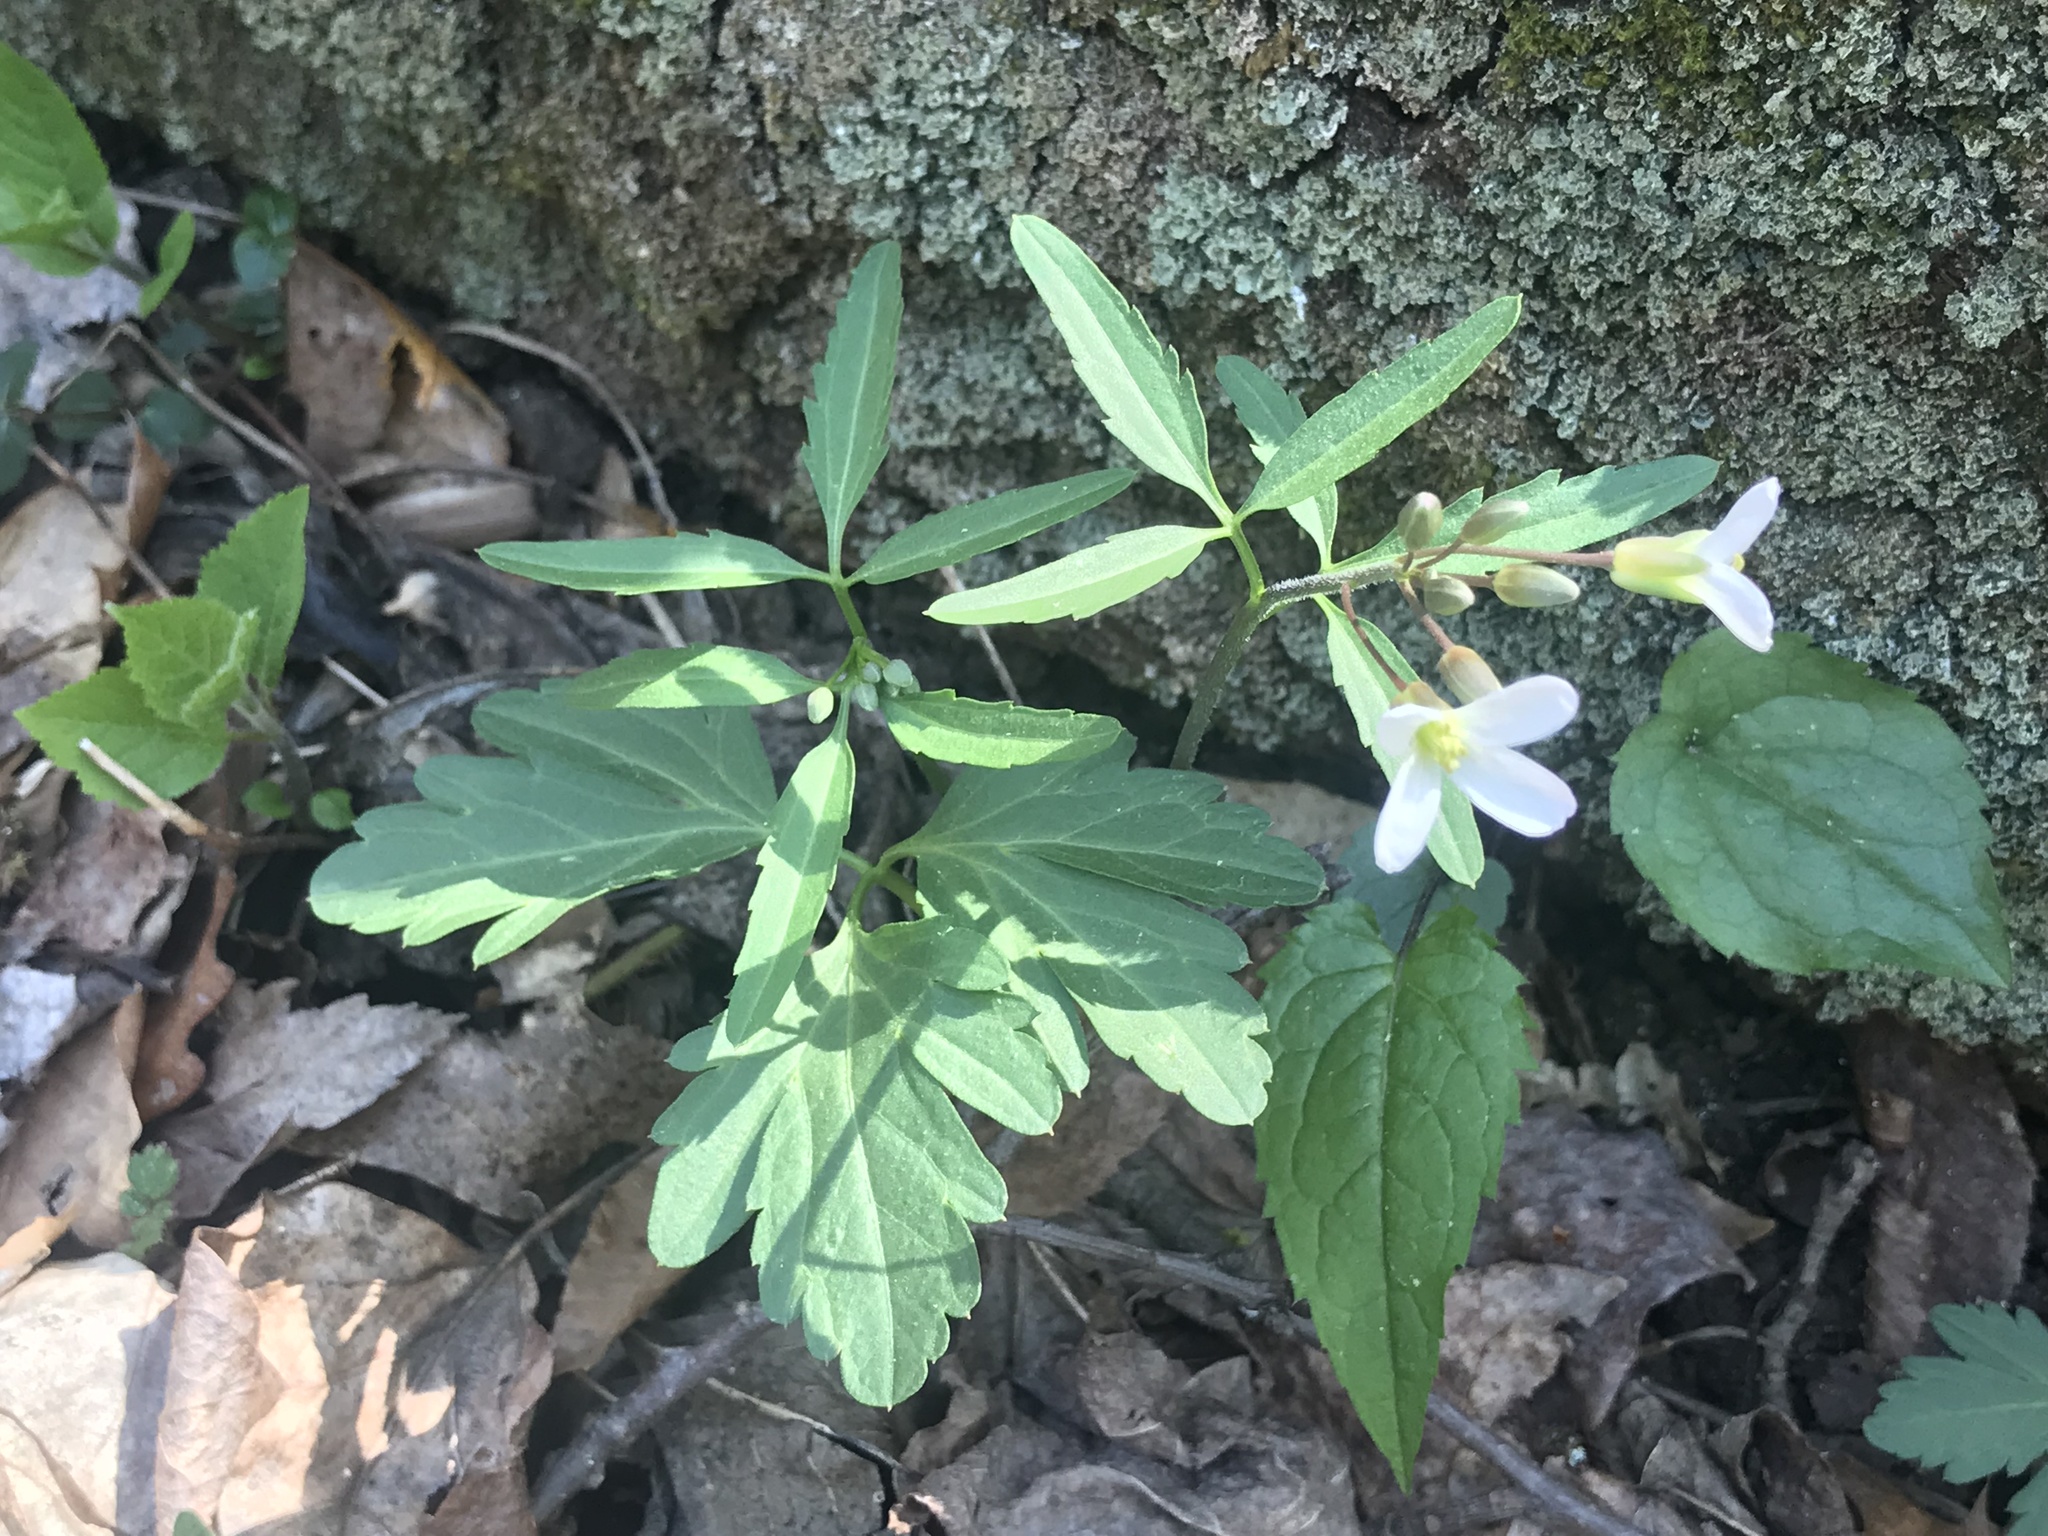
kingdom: Plantae
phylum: Tracheophyta
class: Magnoliopsida
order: Brassicales
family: Brassicaceae
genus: Cardamine
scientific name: Cardamine concatenata
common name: Cut-leaf toothcup
